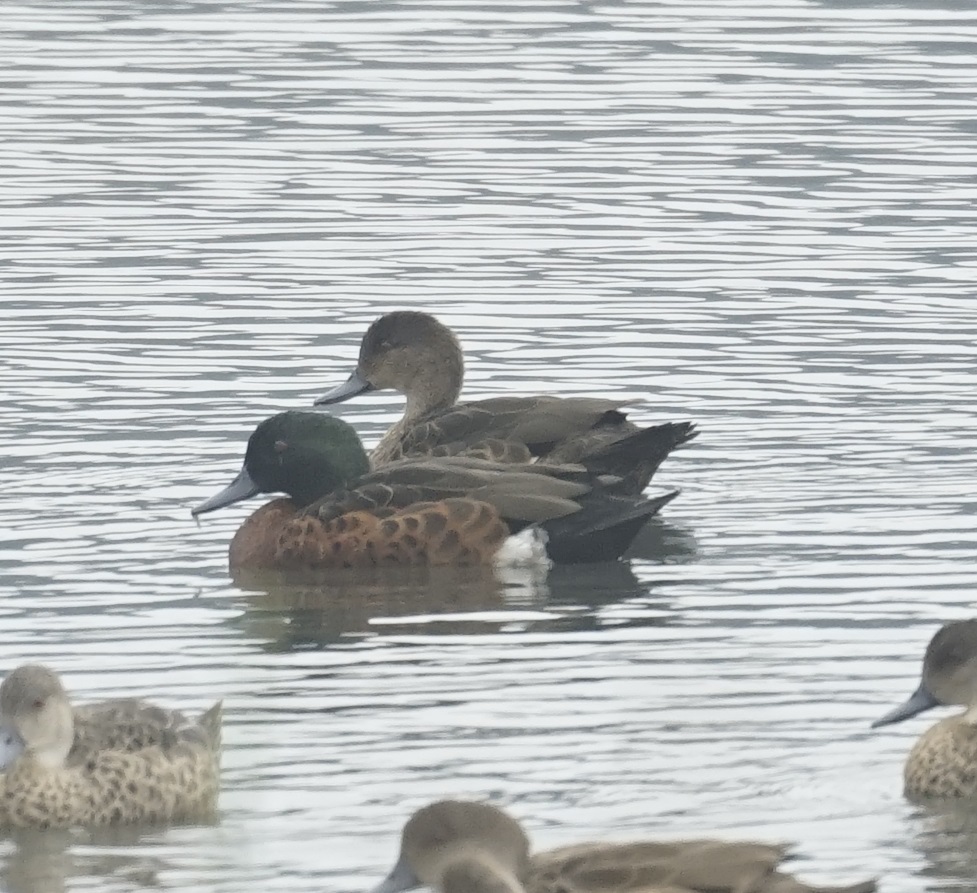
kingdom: Animalia
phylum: Chordata
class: Aves
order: Anseriformes
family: Anatidae
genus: Anas
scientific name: Anas castanea
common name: Chestnut teal
